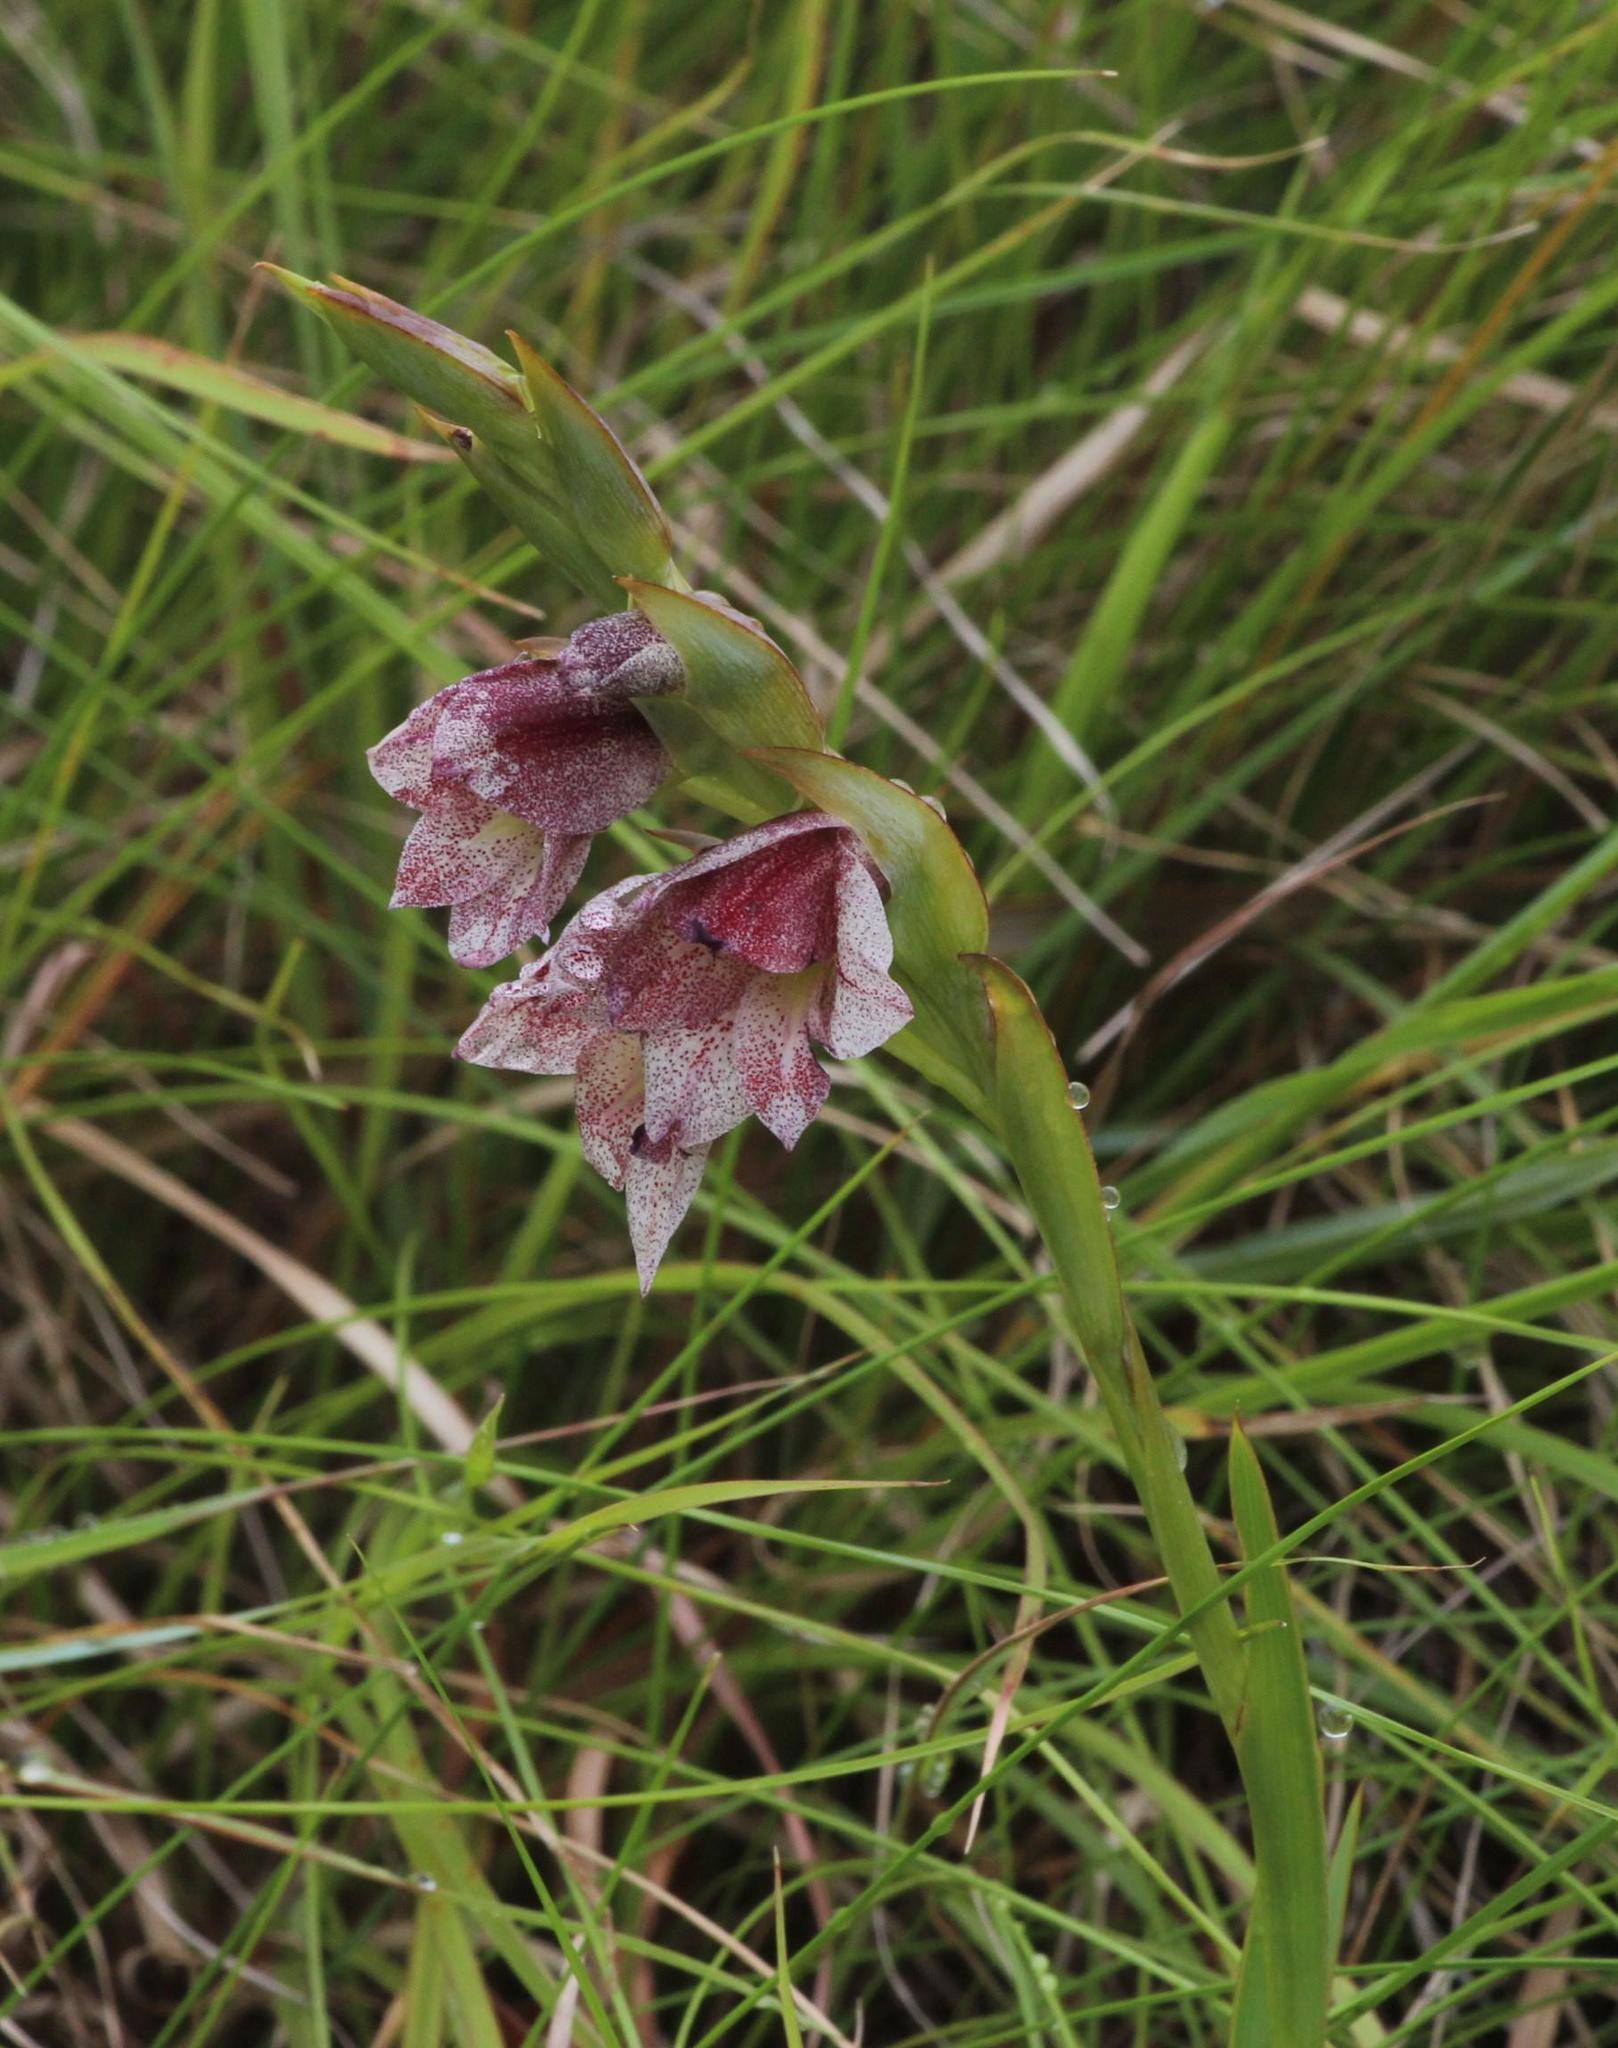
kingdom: Plantae
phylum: Tracheophyta
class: Liliopsida
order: Asparagales
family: Iridaceae
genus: Gladiolus
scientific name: Gladiolus ecklonii
